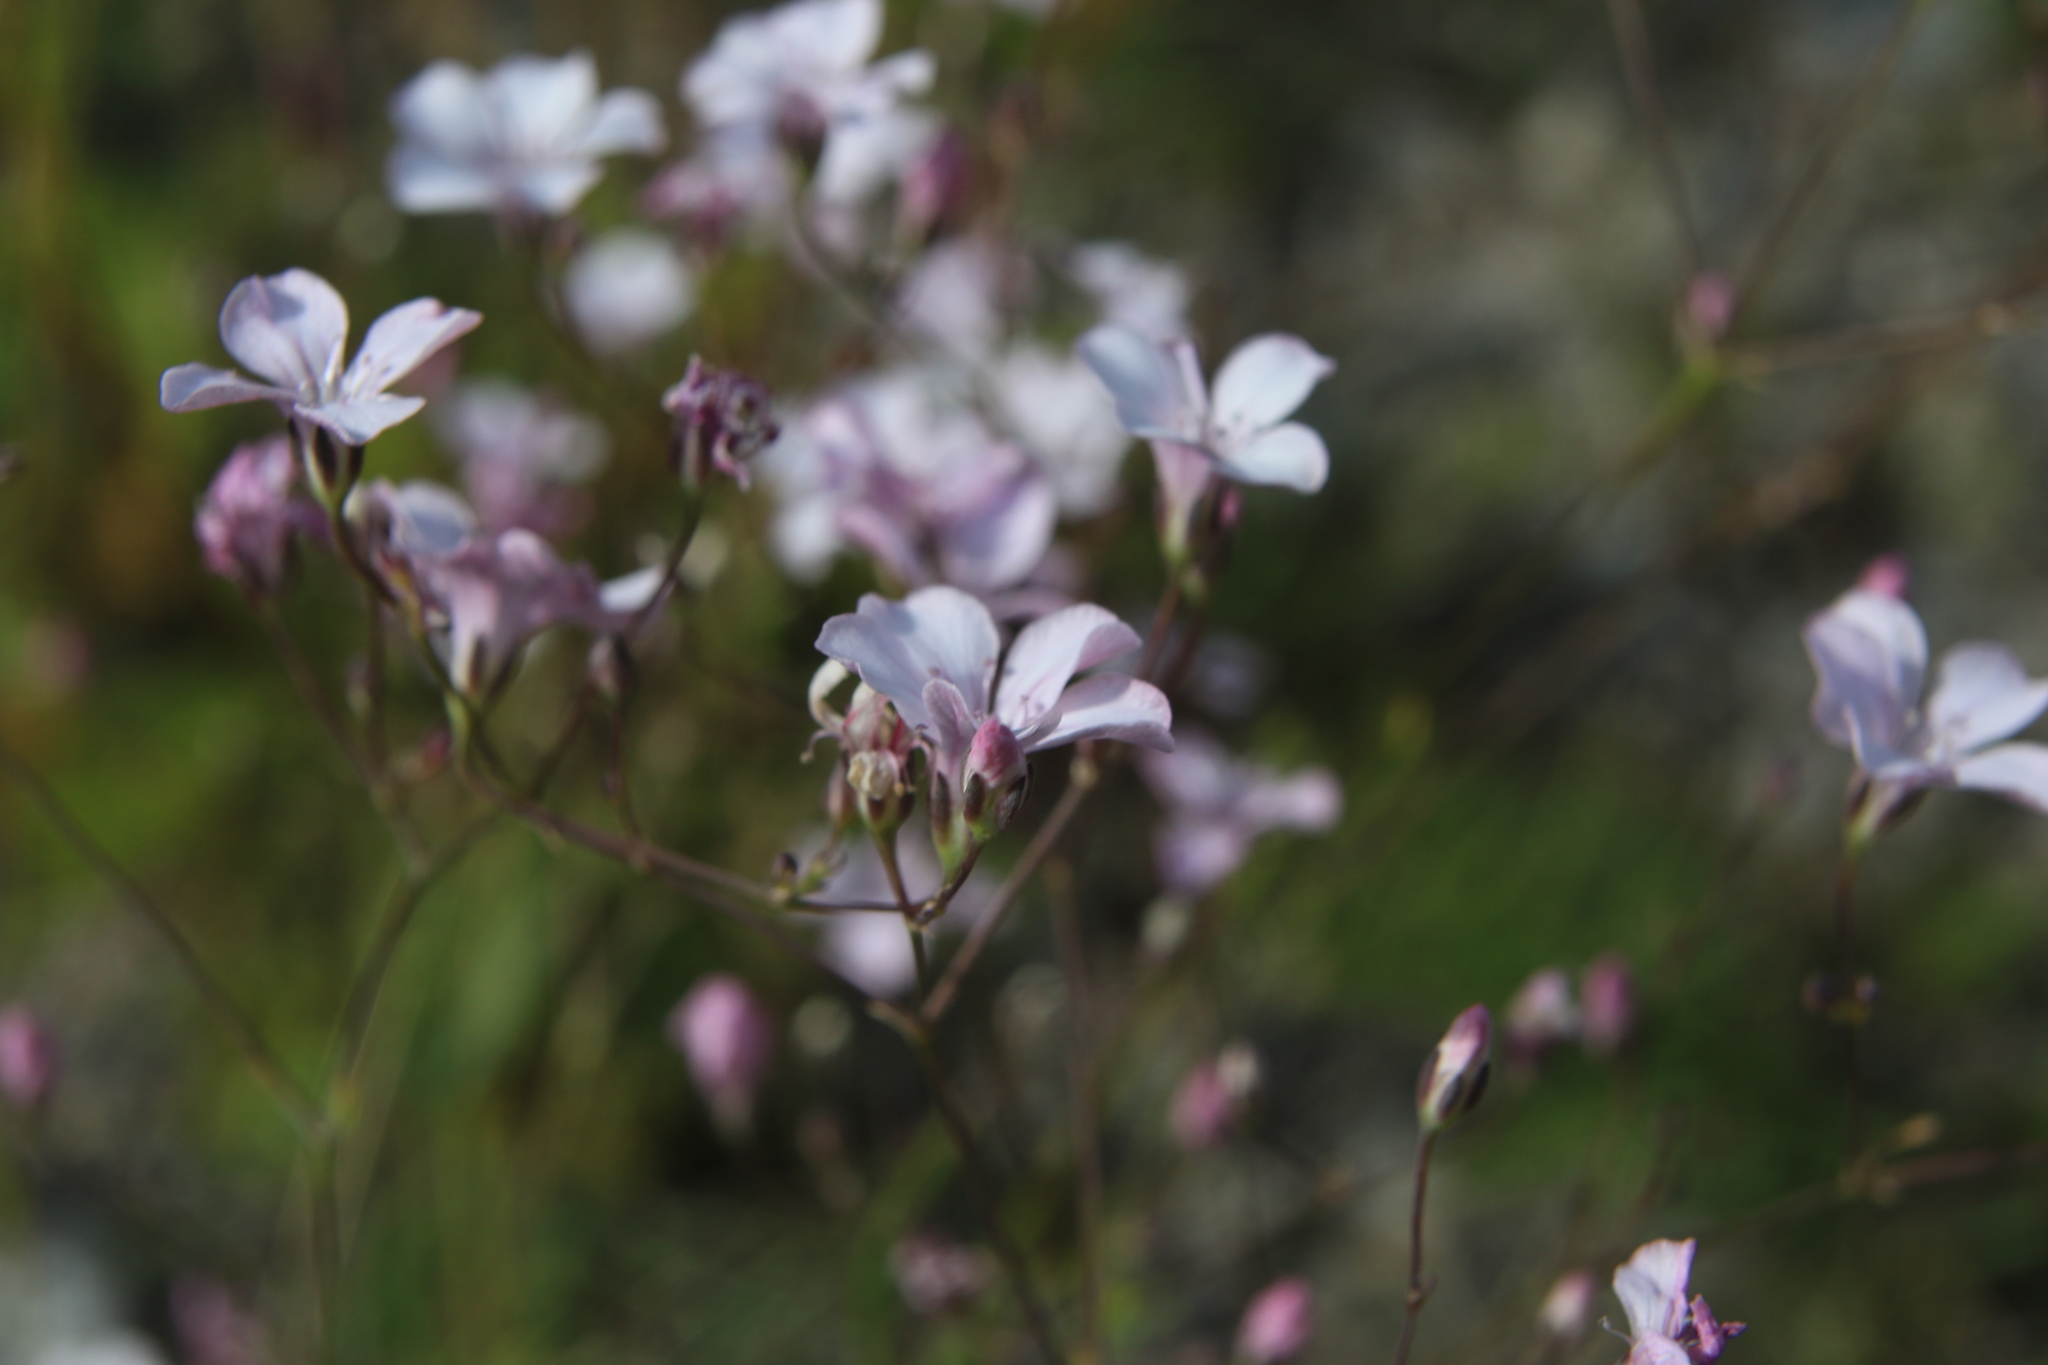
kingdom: Plantae
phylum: Tracheophyta
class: Magnoliopsida
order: Caryophyllales
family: Caryophyllaceae
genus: Gypsophila
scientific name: Gypsophila patrinii
